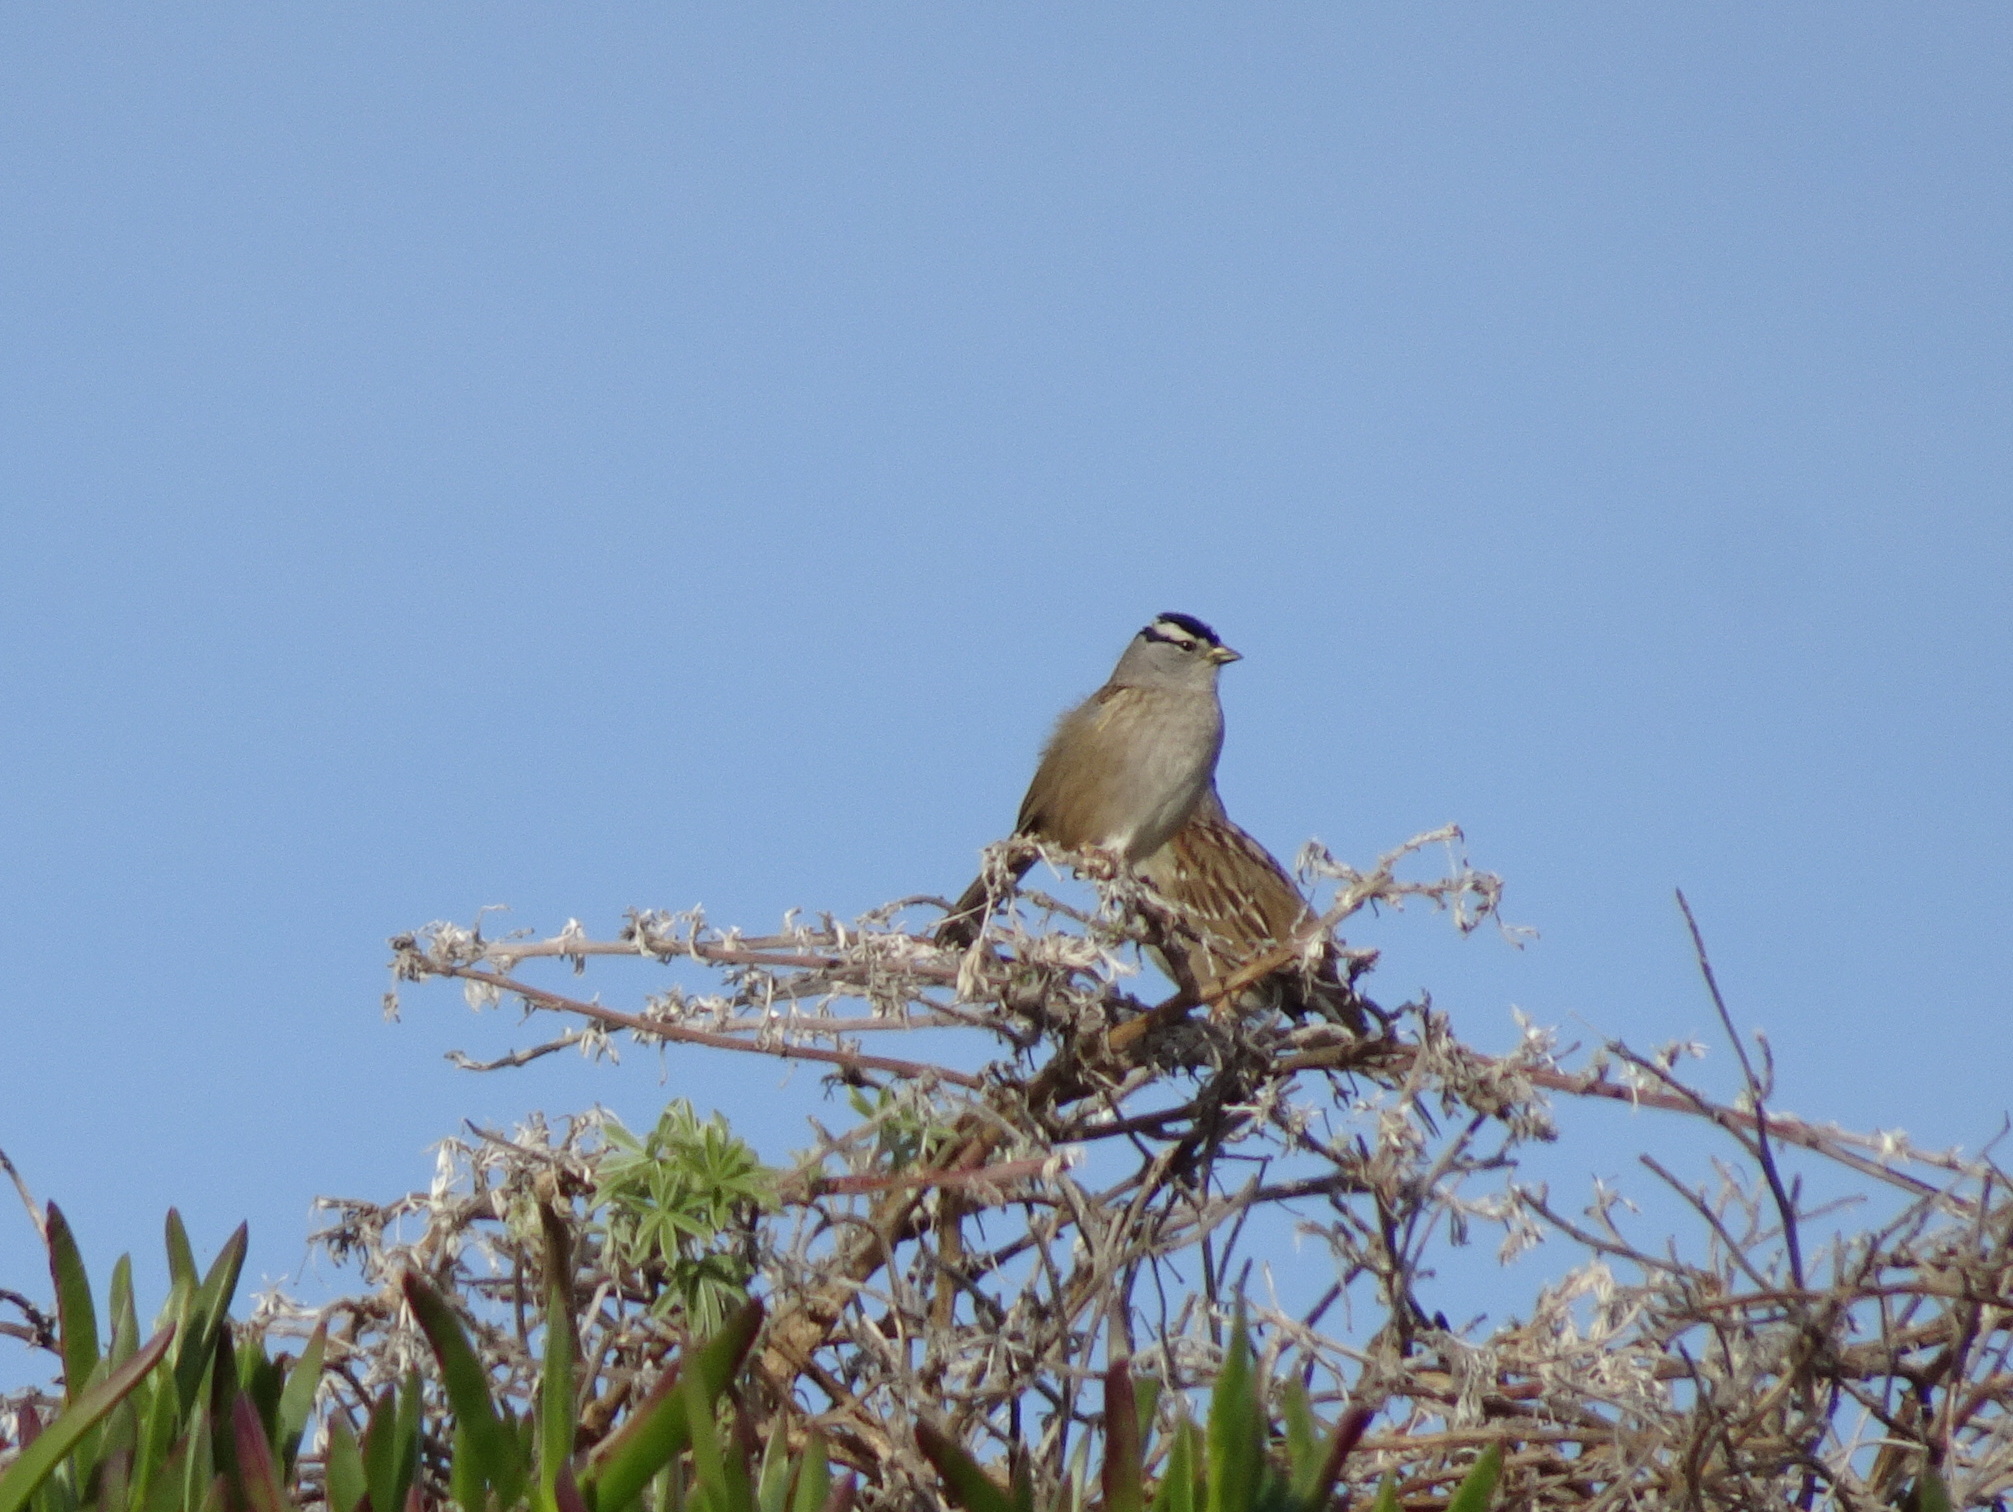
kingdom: Animalia
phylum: Chordata
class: Aves
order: Passeriformes
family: Passerellidae
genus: Zonotrichia
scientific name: Zonotrichia leucophrys
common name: White-crowned sparrow
